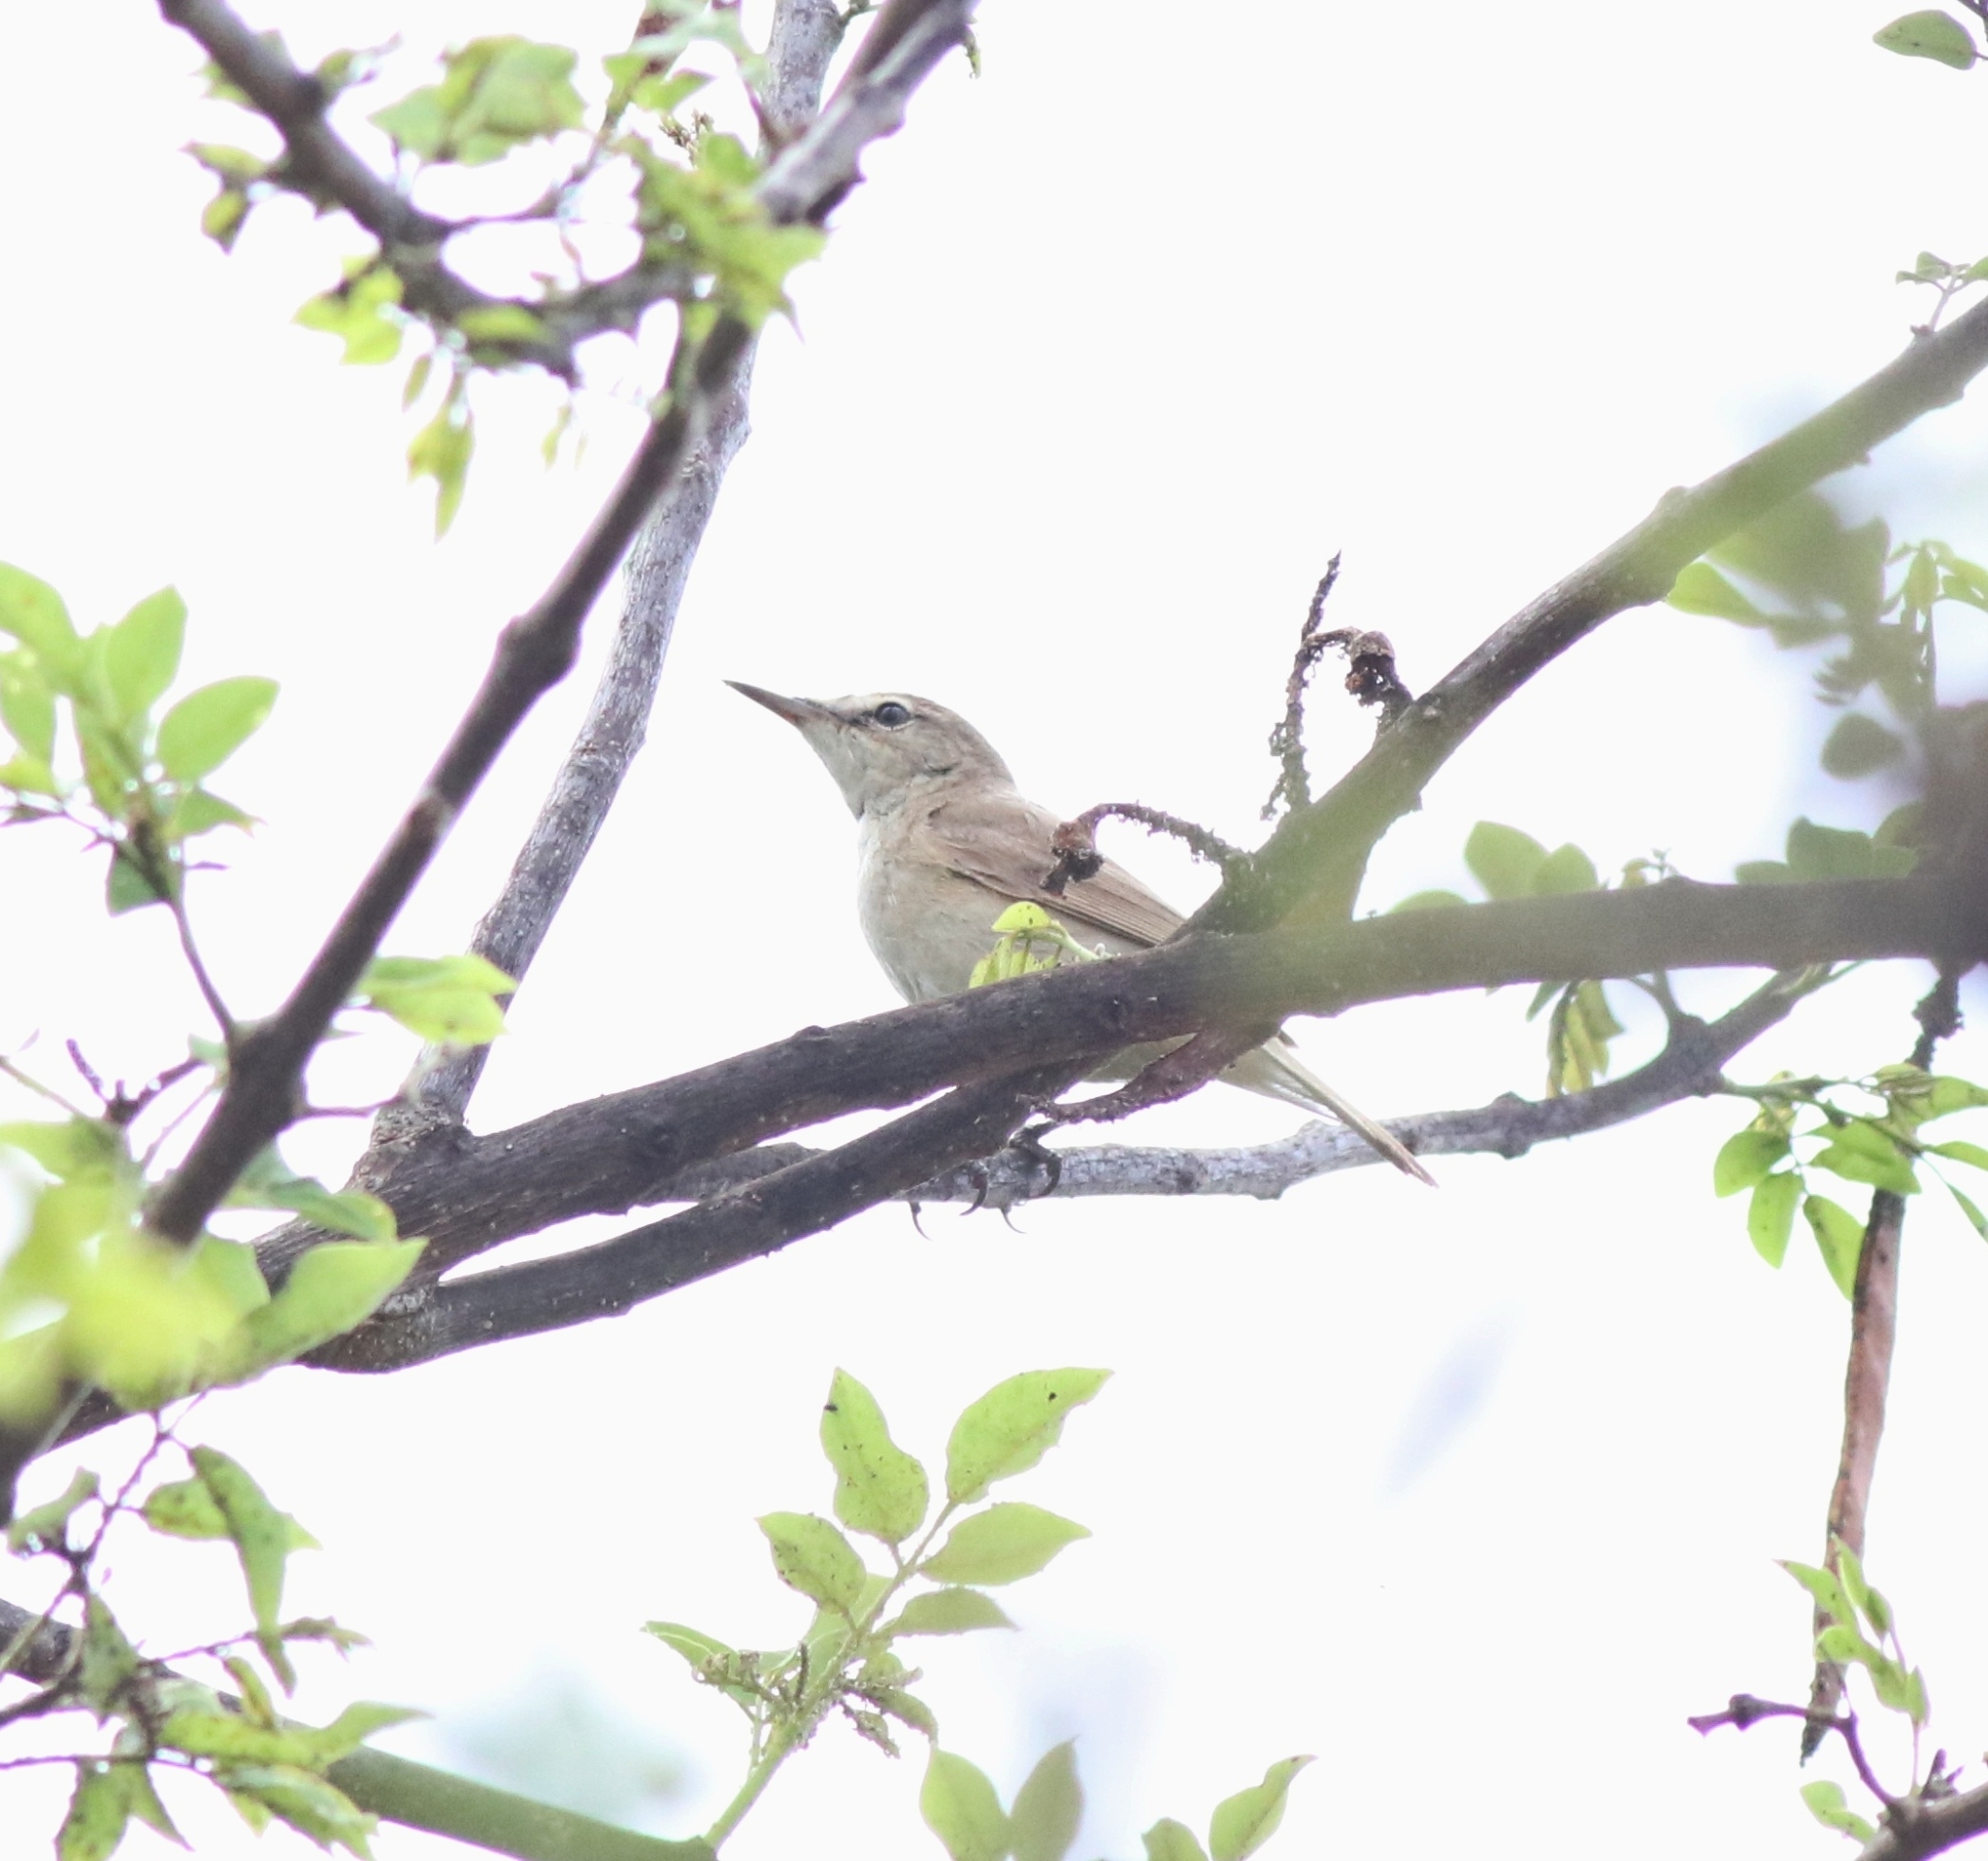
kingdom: Animalia
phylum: Chordata
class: Aves
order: Passeriformes
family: Acrocephalidae
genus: Acrocephalus
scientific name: Acrocephalus dumetorum
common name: Blyth's reed warbler
